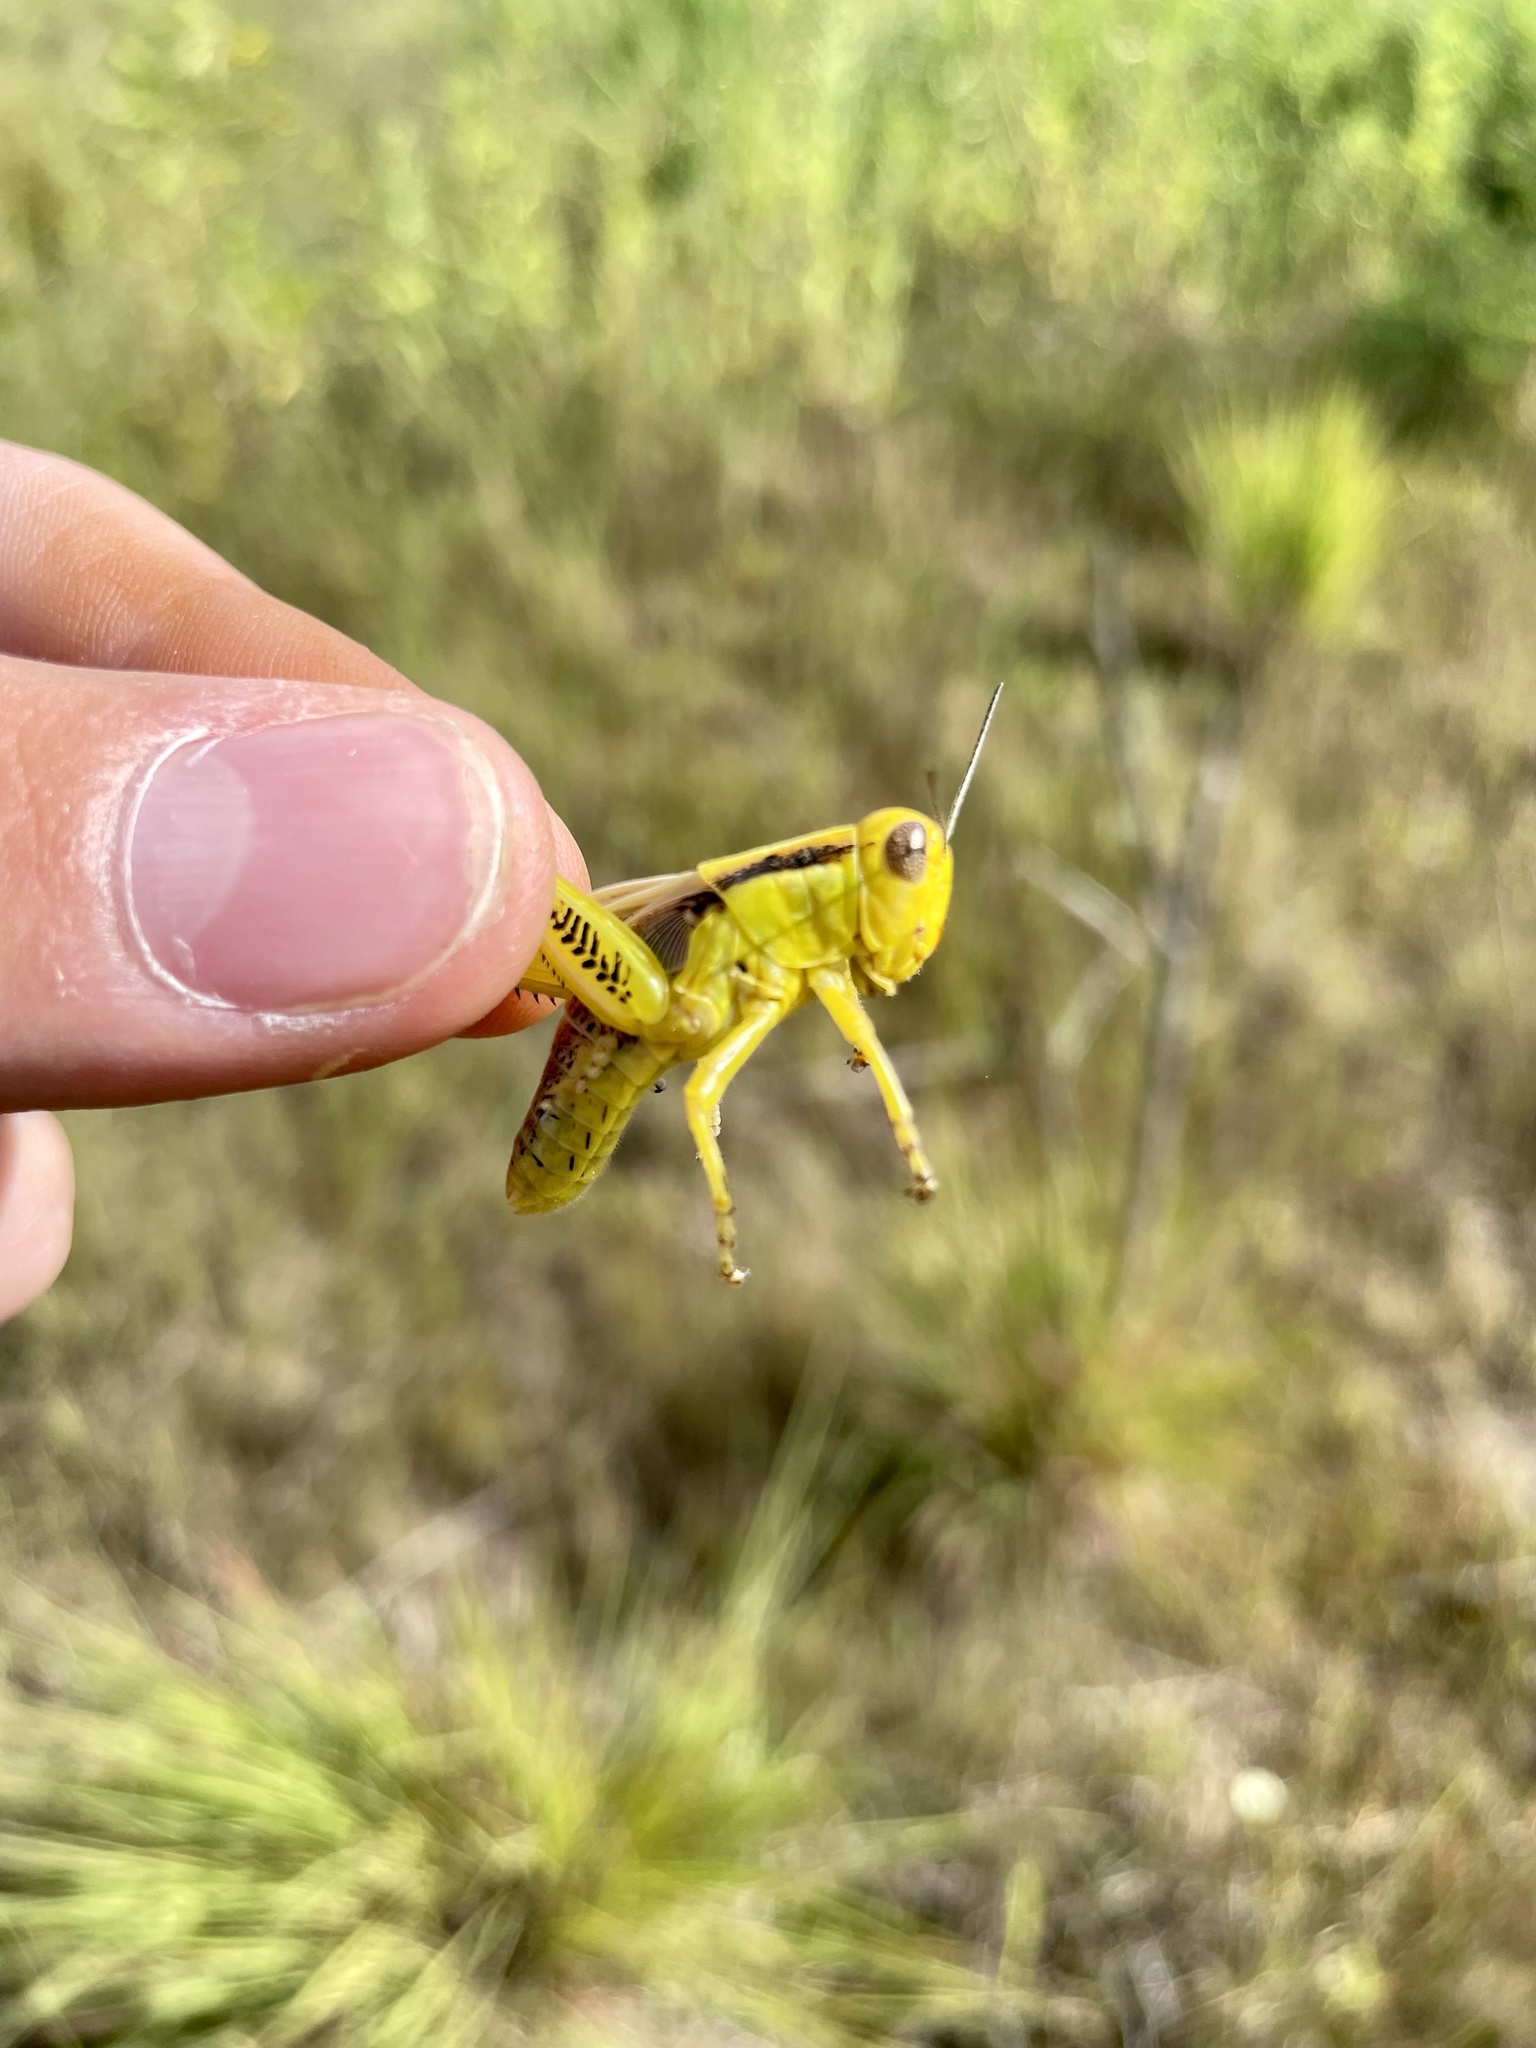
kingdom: Animalia
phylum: Arthropoda
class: Insecta
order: Orthoptera
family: Acrididae
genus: Melanoplus
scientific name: Melanoplus differentialis
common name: Differential grasshopper
